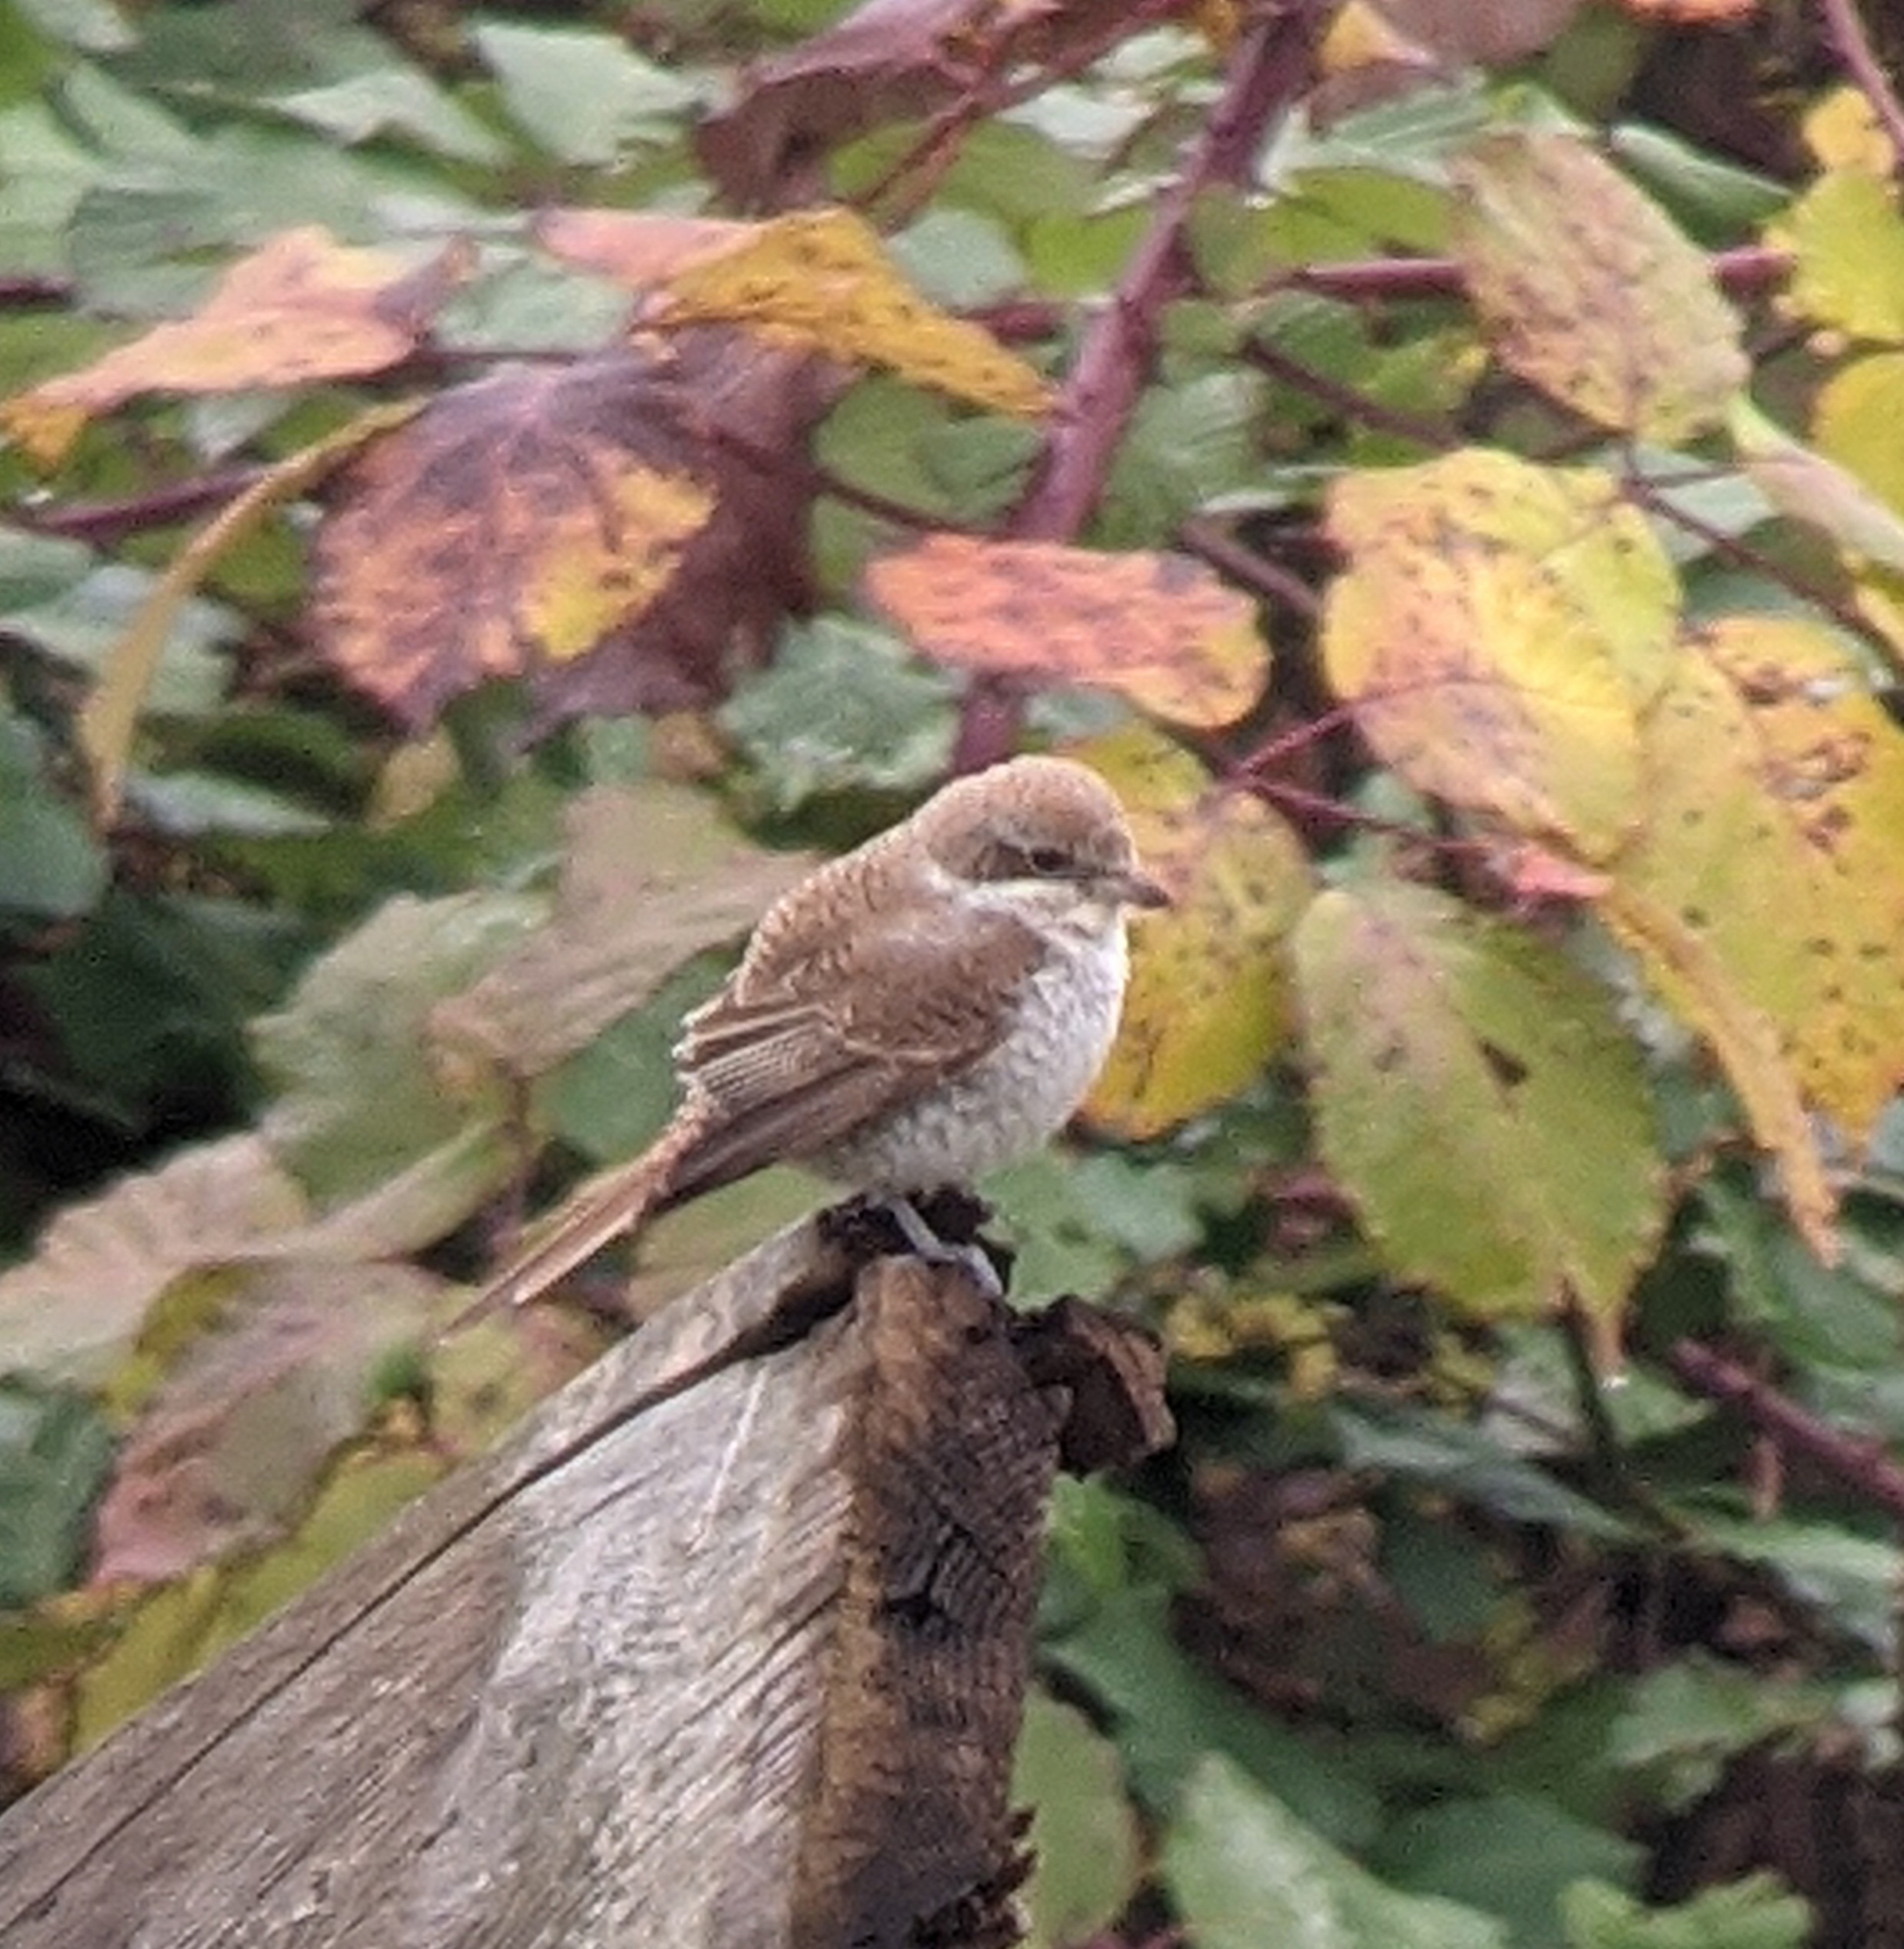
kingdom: Animalia
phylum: Chordata
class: Aves
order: Passeriformes
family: Laniidae
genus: Lanius
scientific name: Lanius collurio
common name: Red-backed shrike
